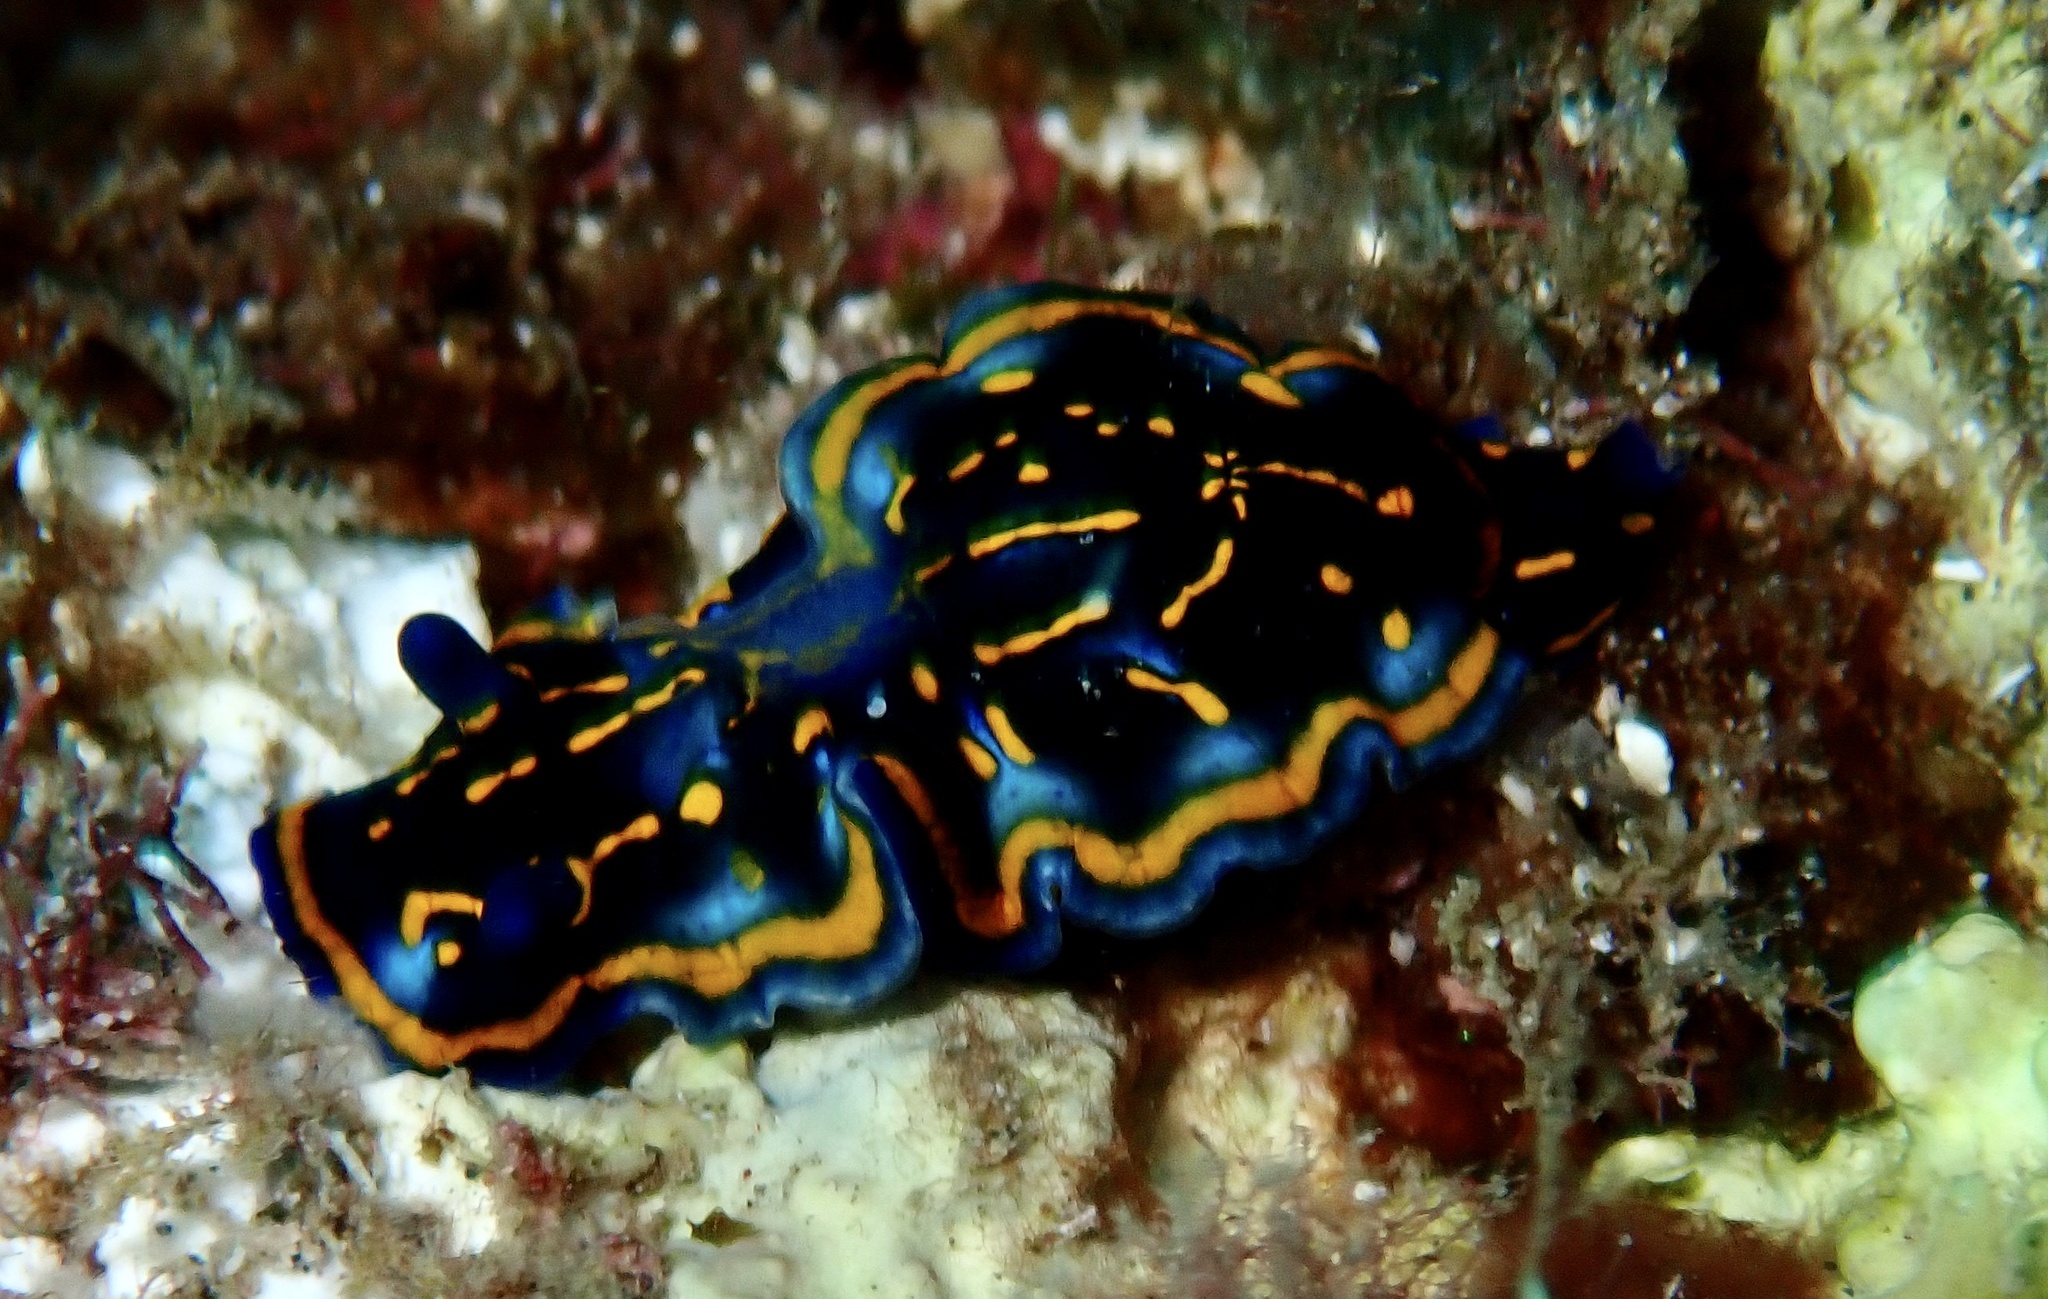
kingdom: Animalia
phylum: Mollusca
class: Gastropoda
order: Nudibranchia
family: Chromodorididae
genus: Felimare
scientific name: Felimare tema
